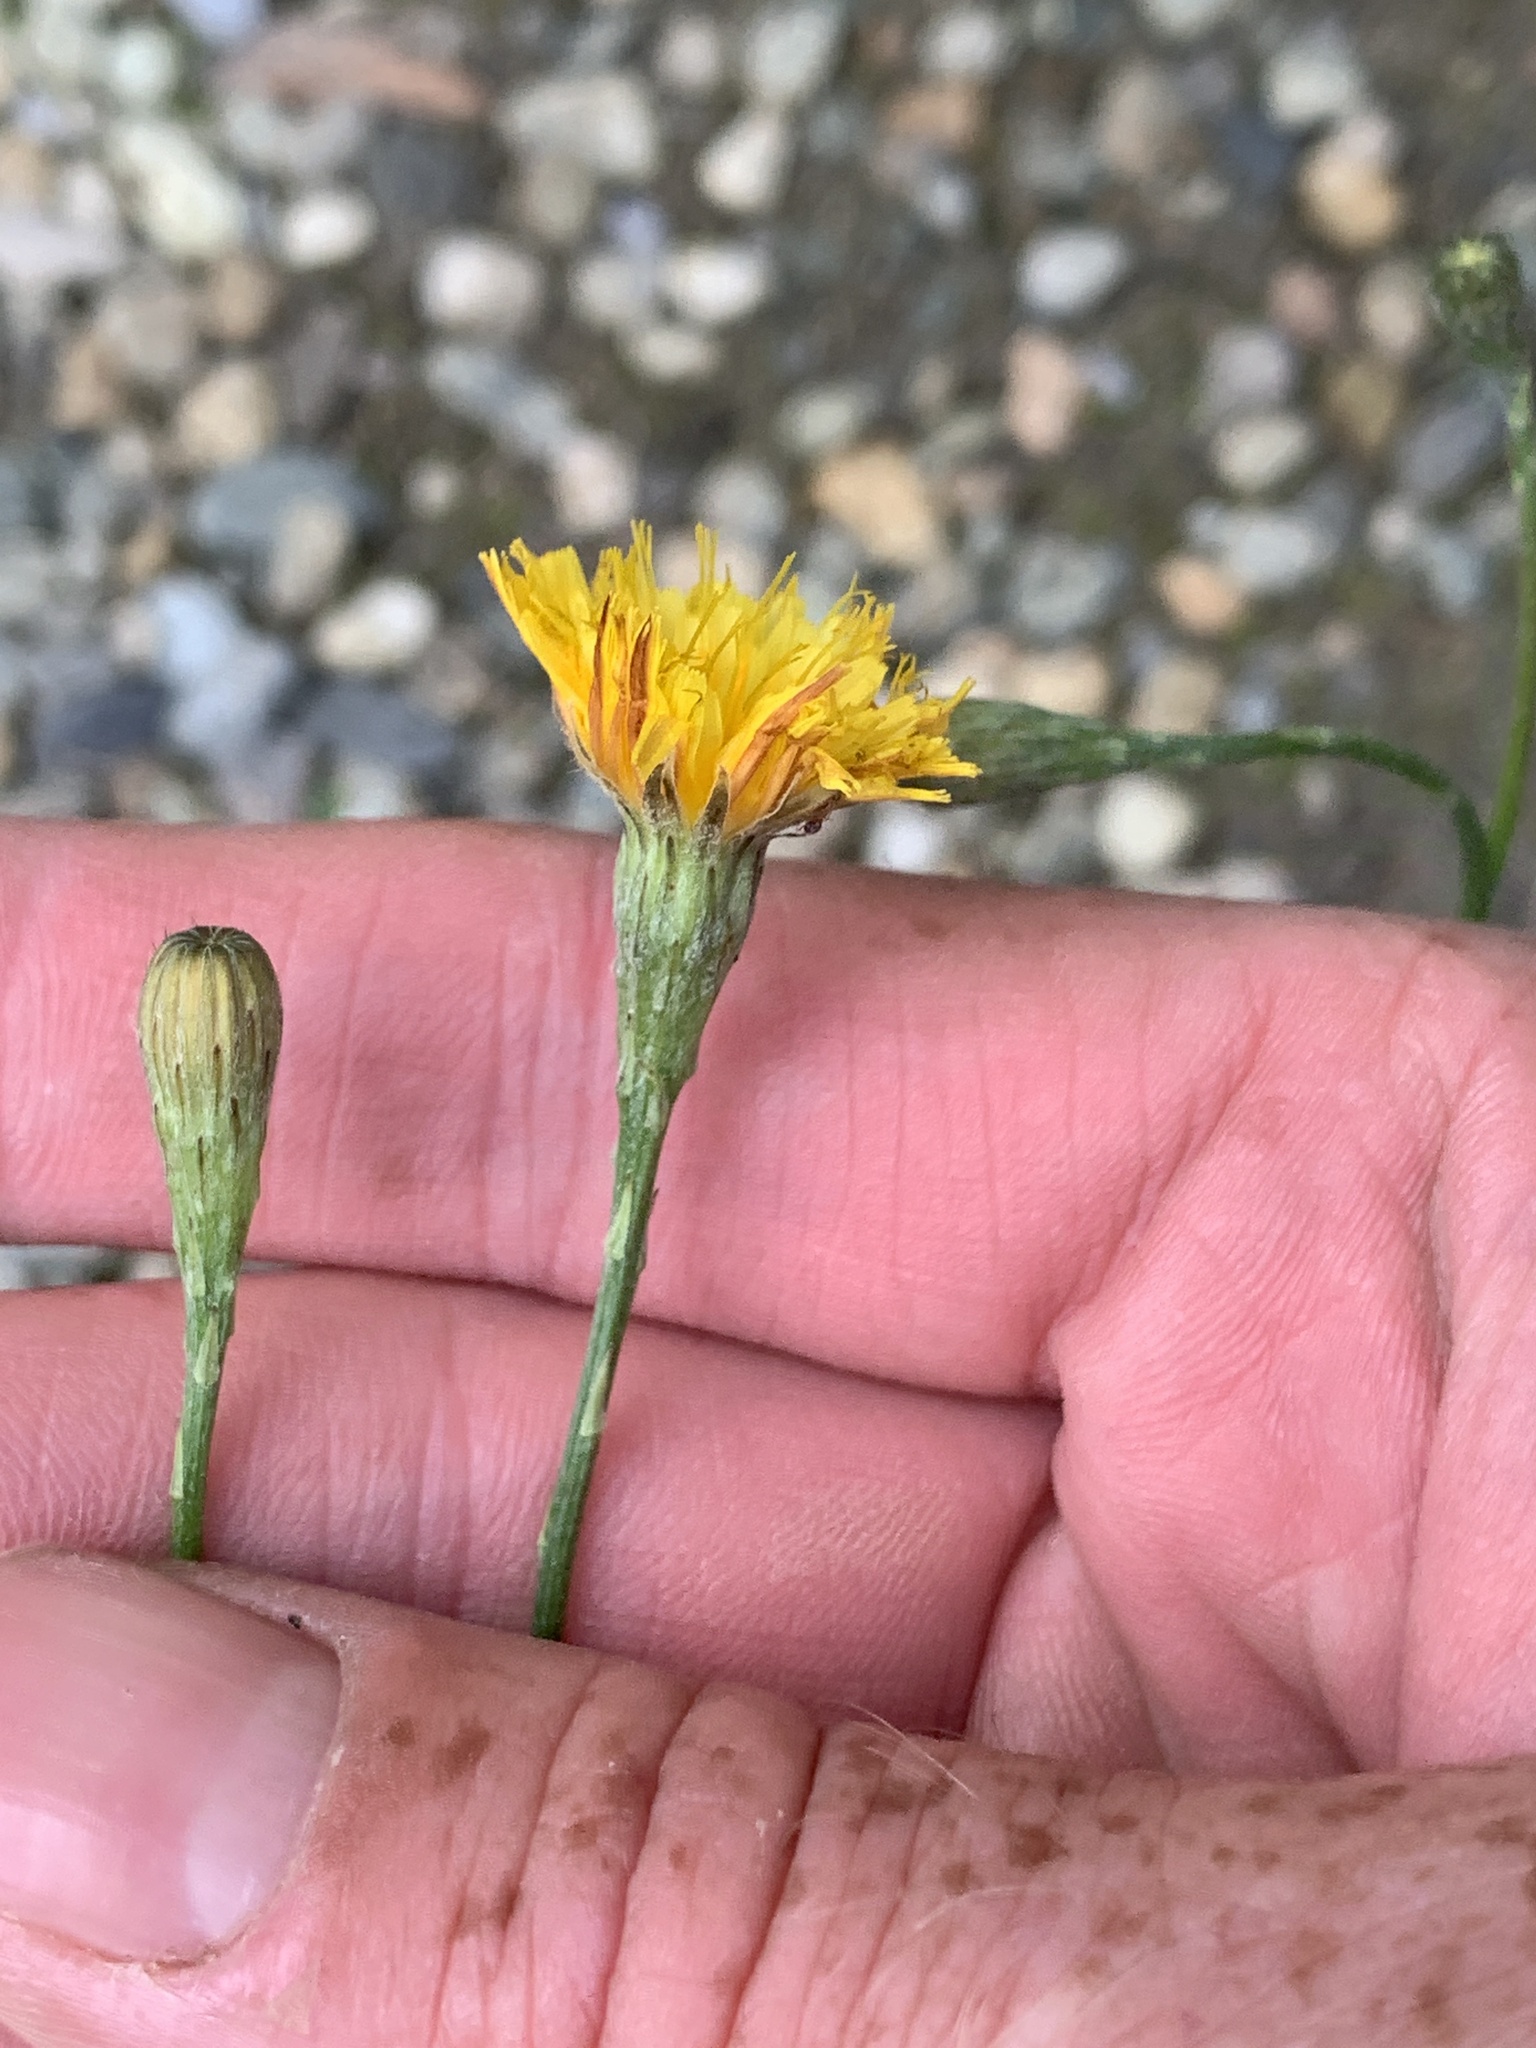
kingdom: Plantae
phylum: Tracheophyta
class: Magnoliopsida
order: Asterales
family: Asteraceae
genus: Scorzoneroides
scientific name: Scorzoneroides autumnalis
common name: Autumn hawkbit
